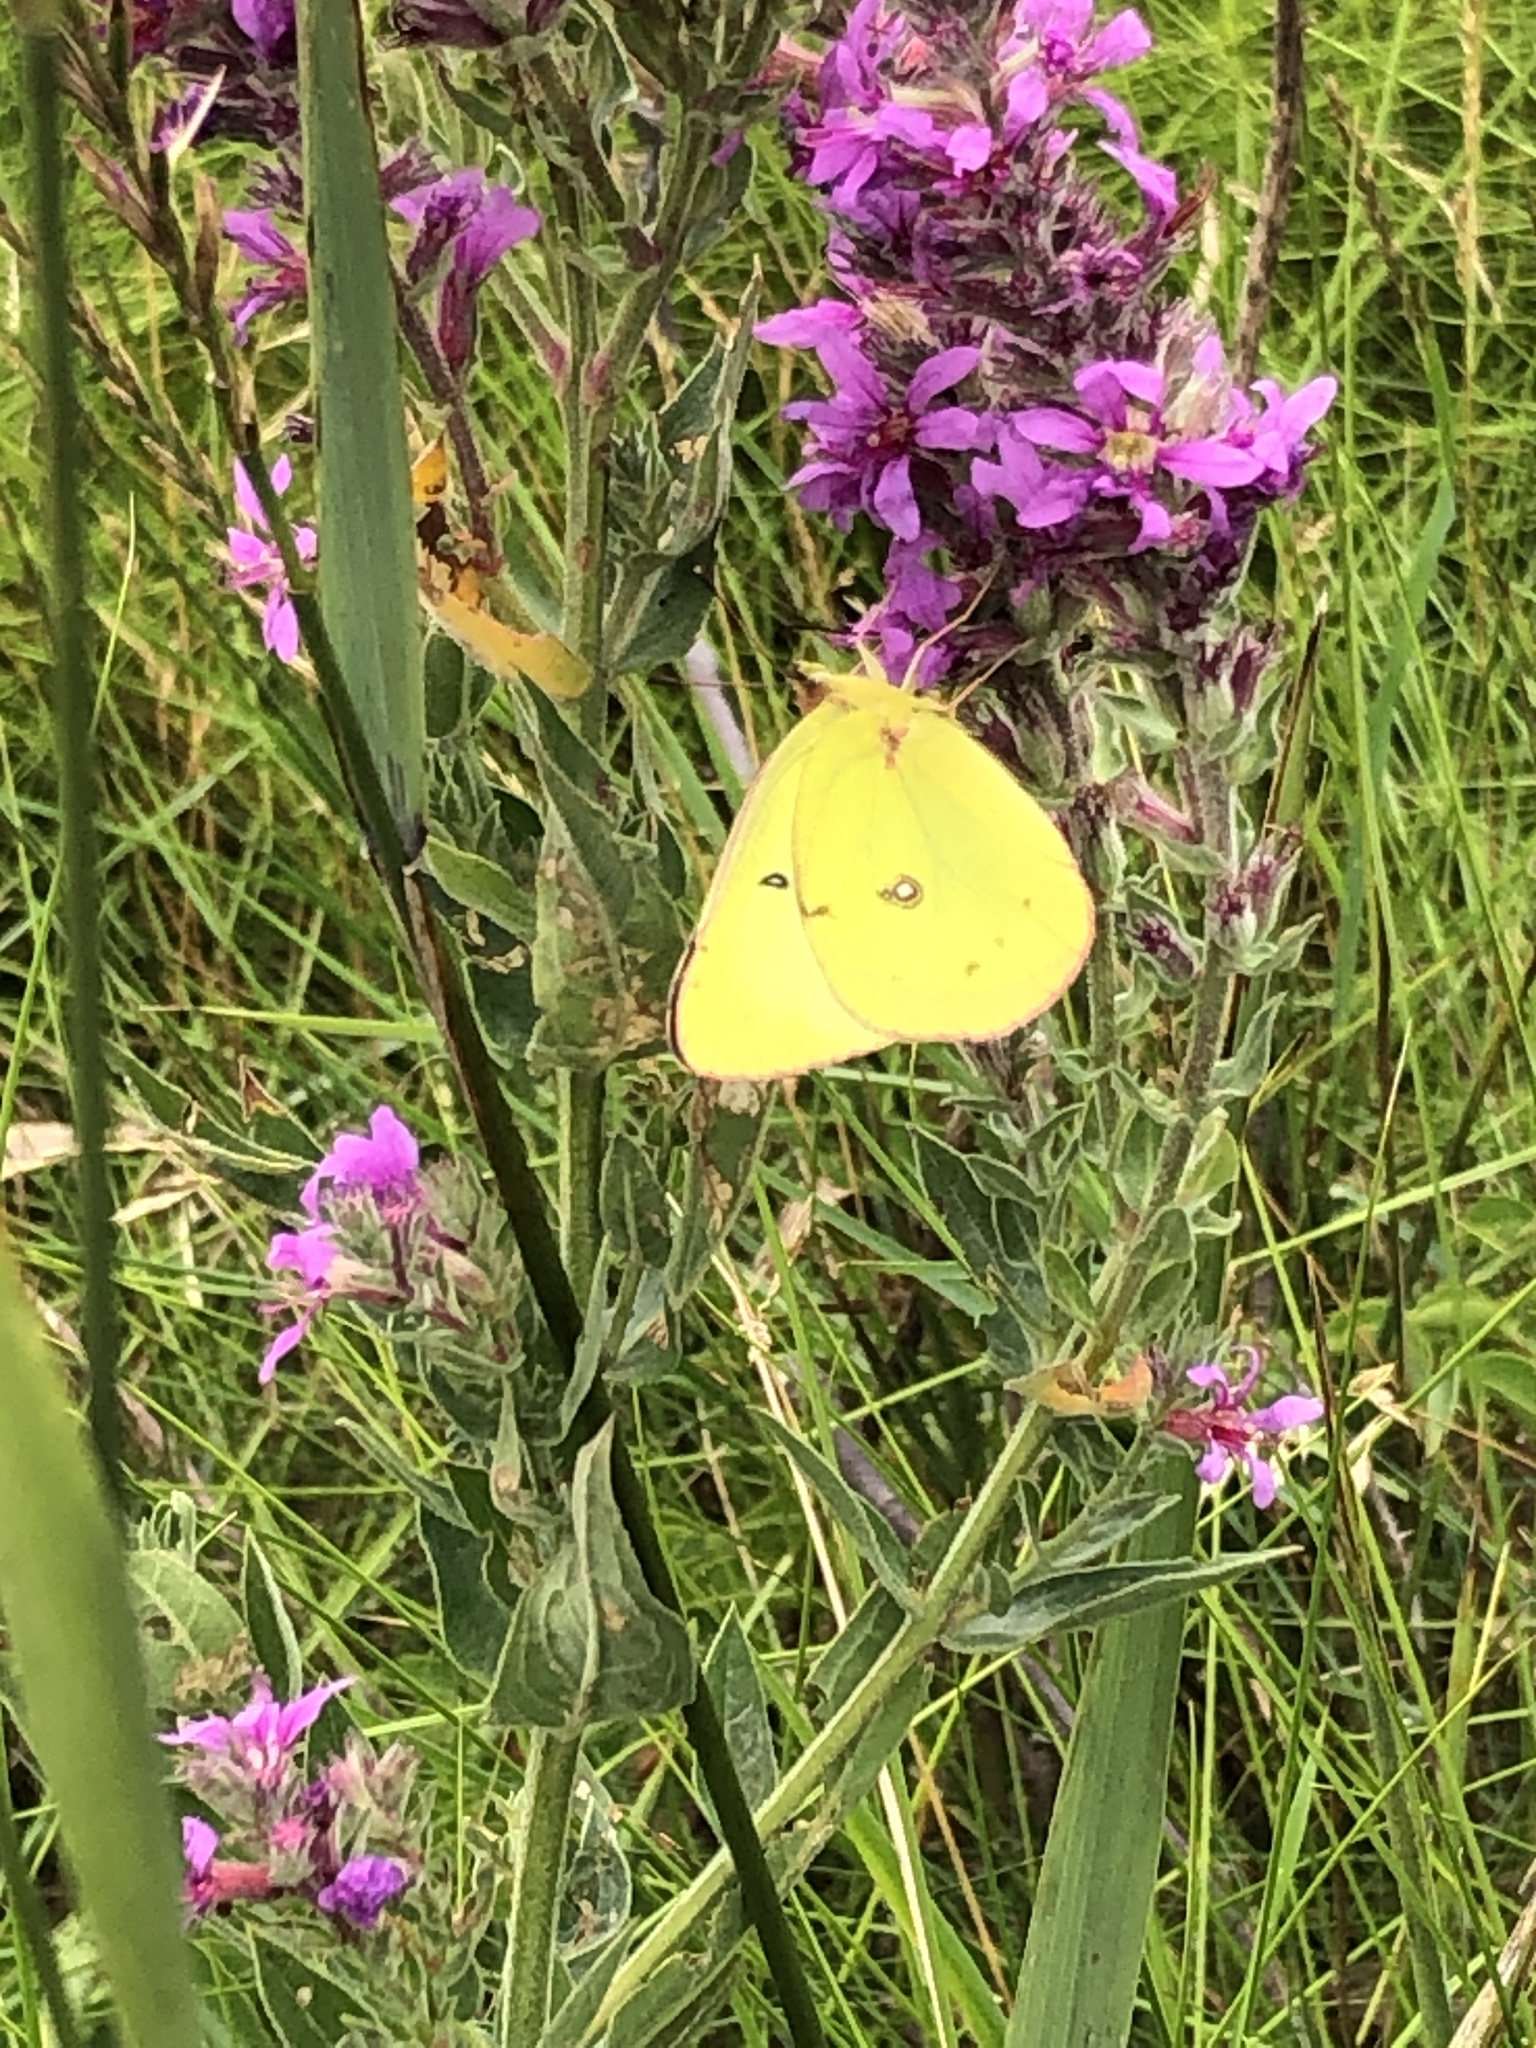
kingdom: Animalia
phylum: Arthropoda
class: Insecta
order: Lepidoptera
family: Pieridae
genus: Colias
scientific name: Colias philodice
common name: Clouded sulphur
